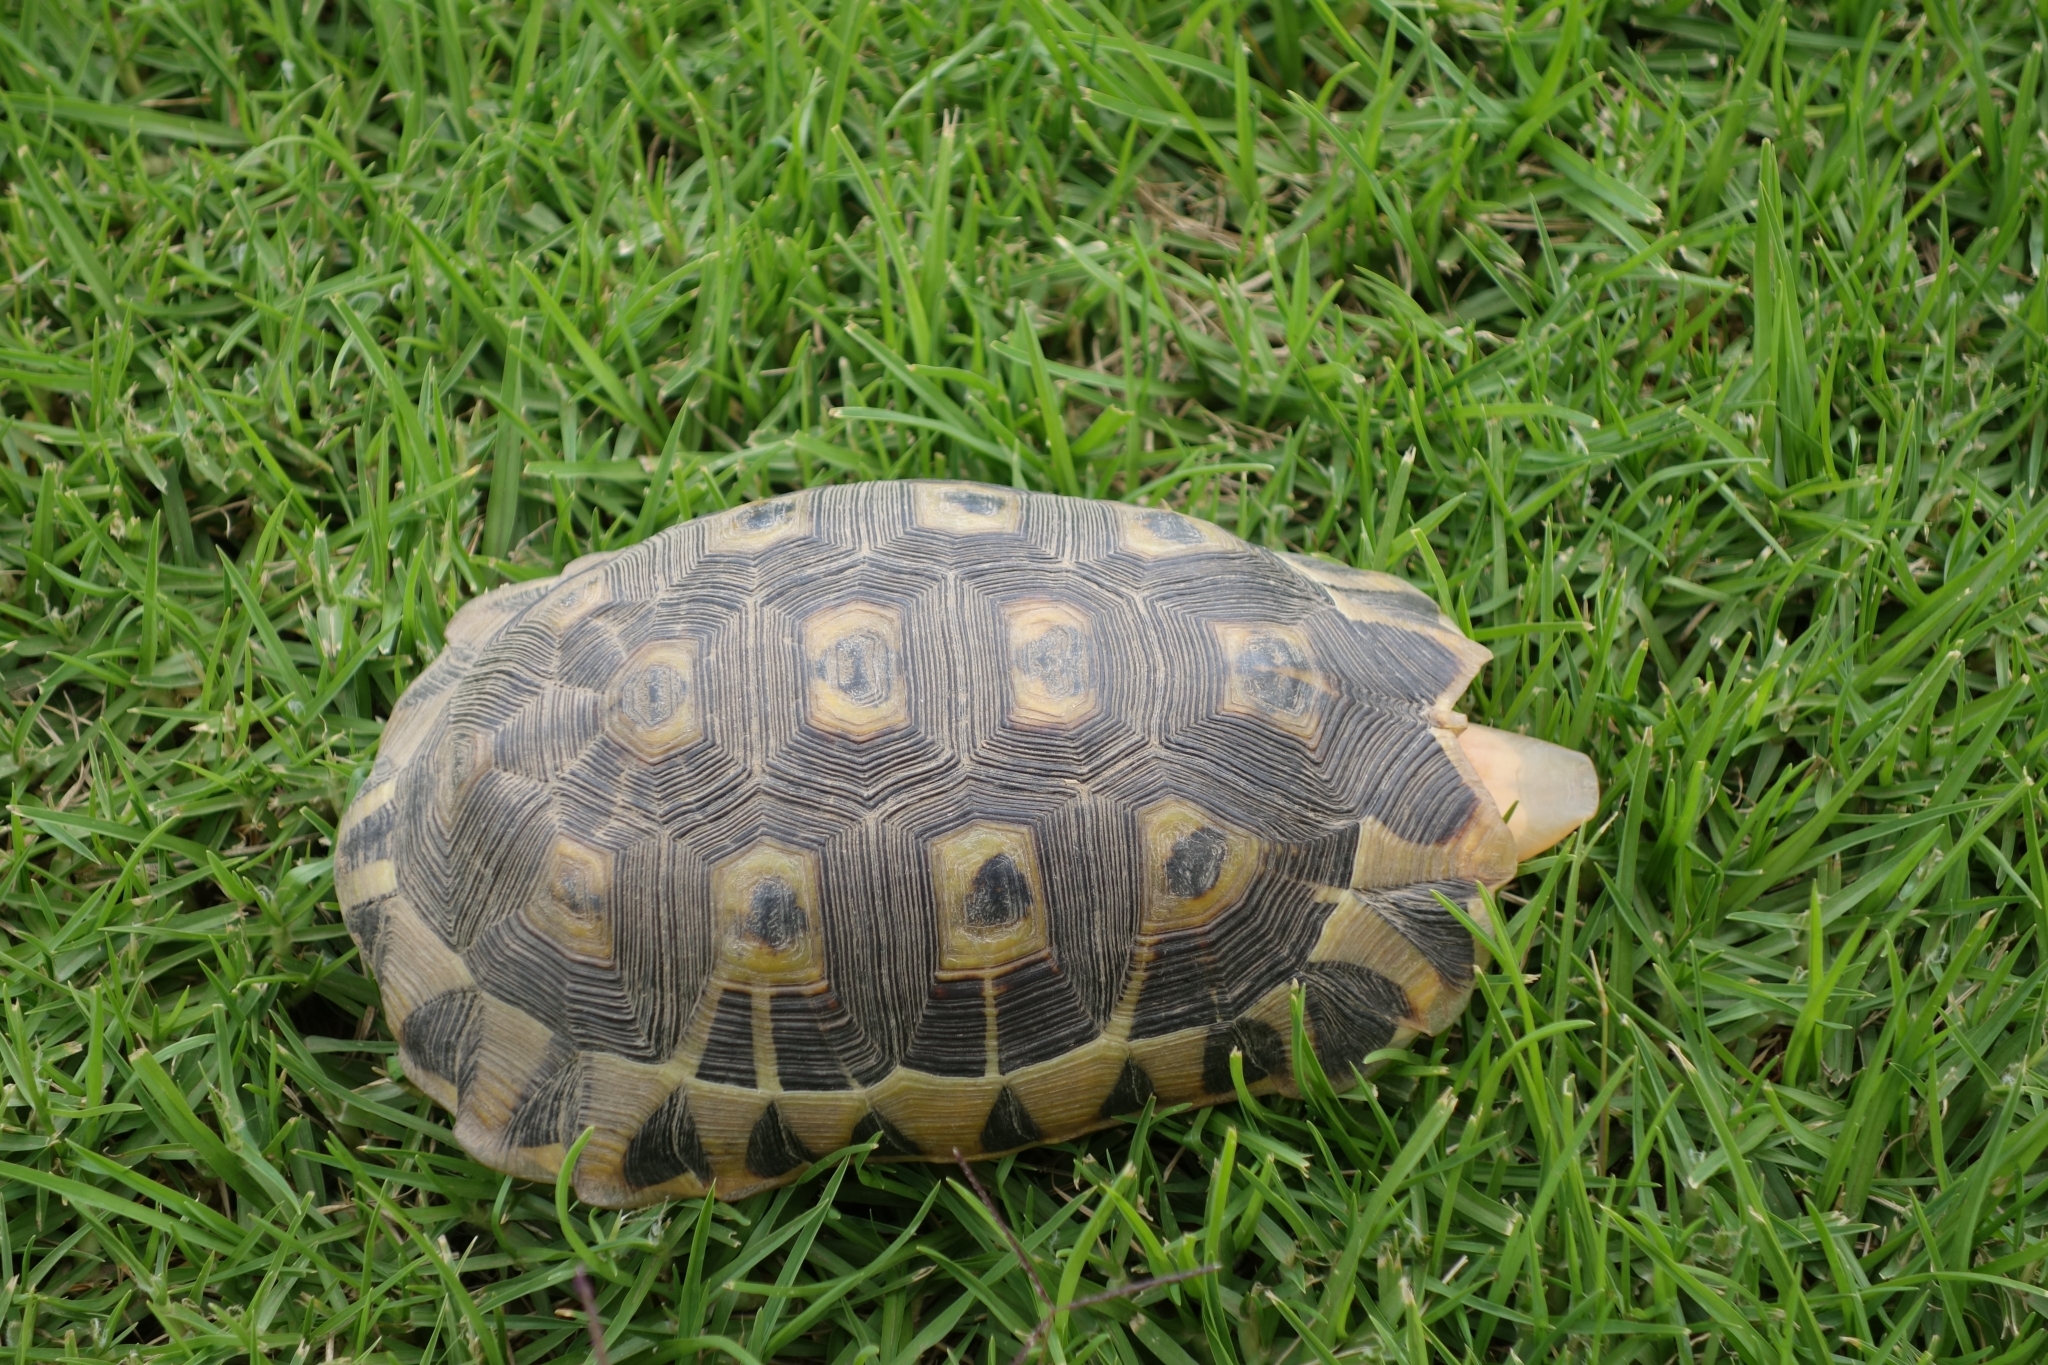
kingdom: Animalia
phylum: Chordata
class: Testudines
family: Testudinidae
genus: Chersina
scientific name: Chersina angulata
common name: South african bowsprit tortoise
